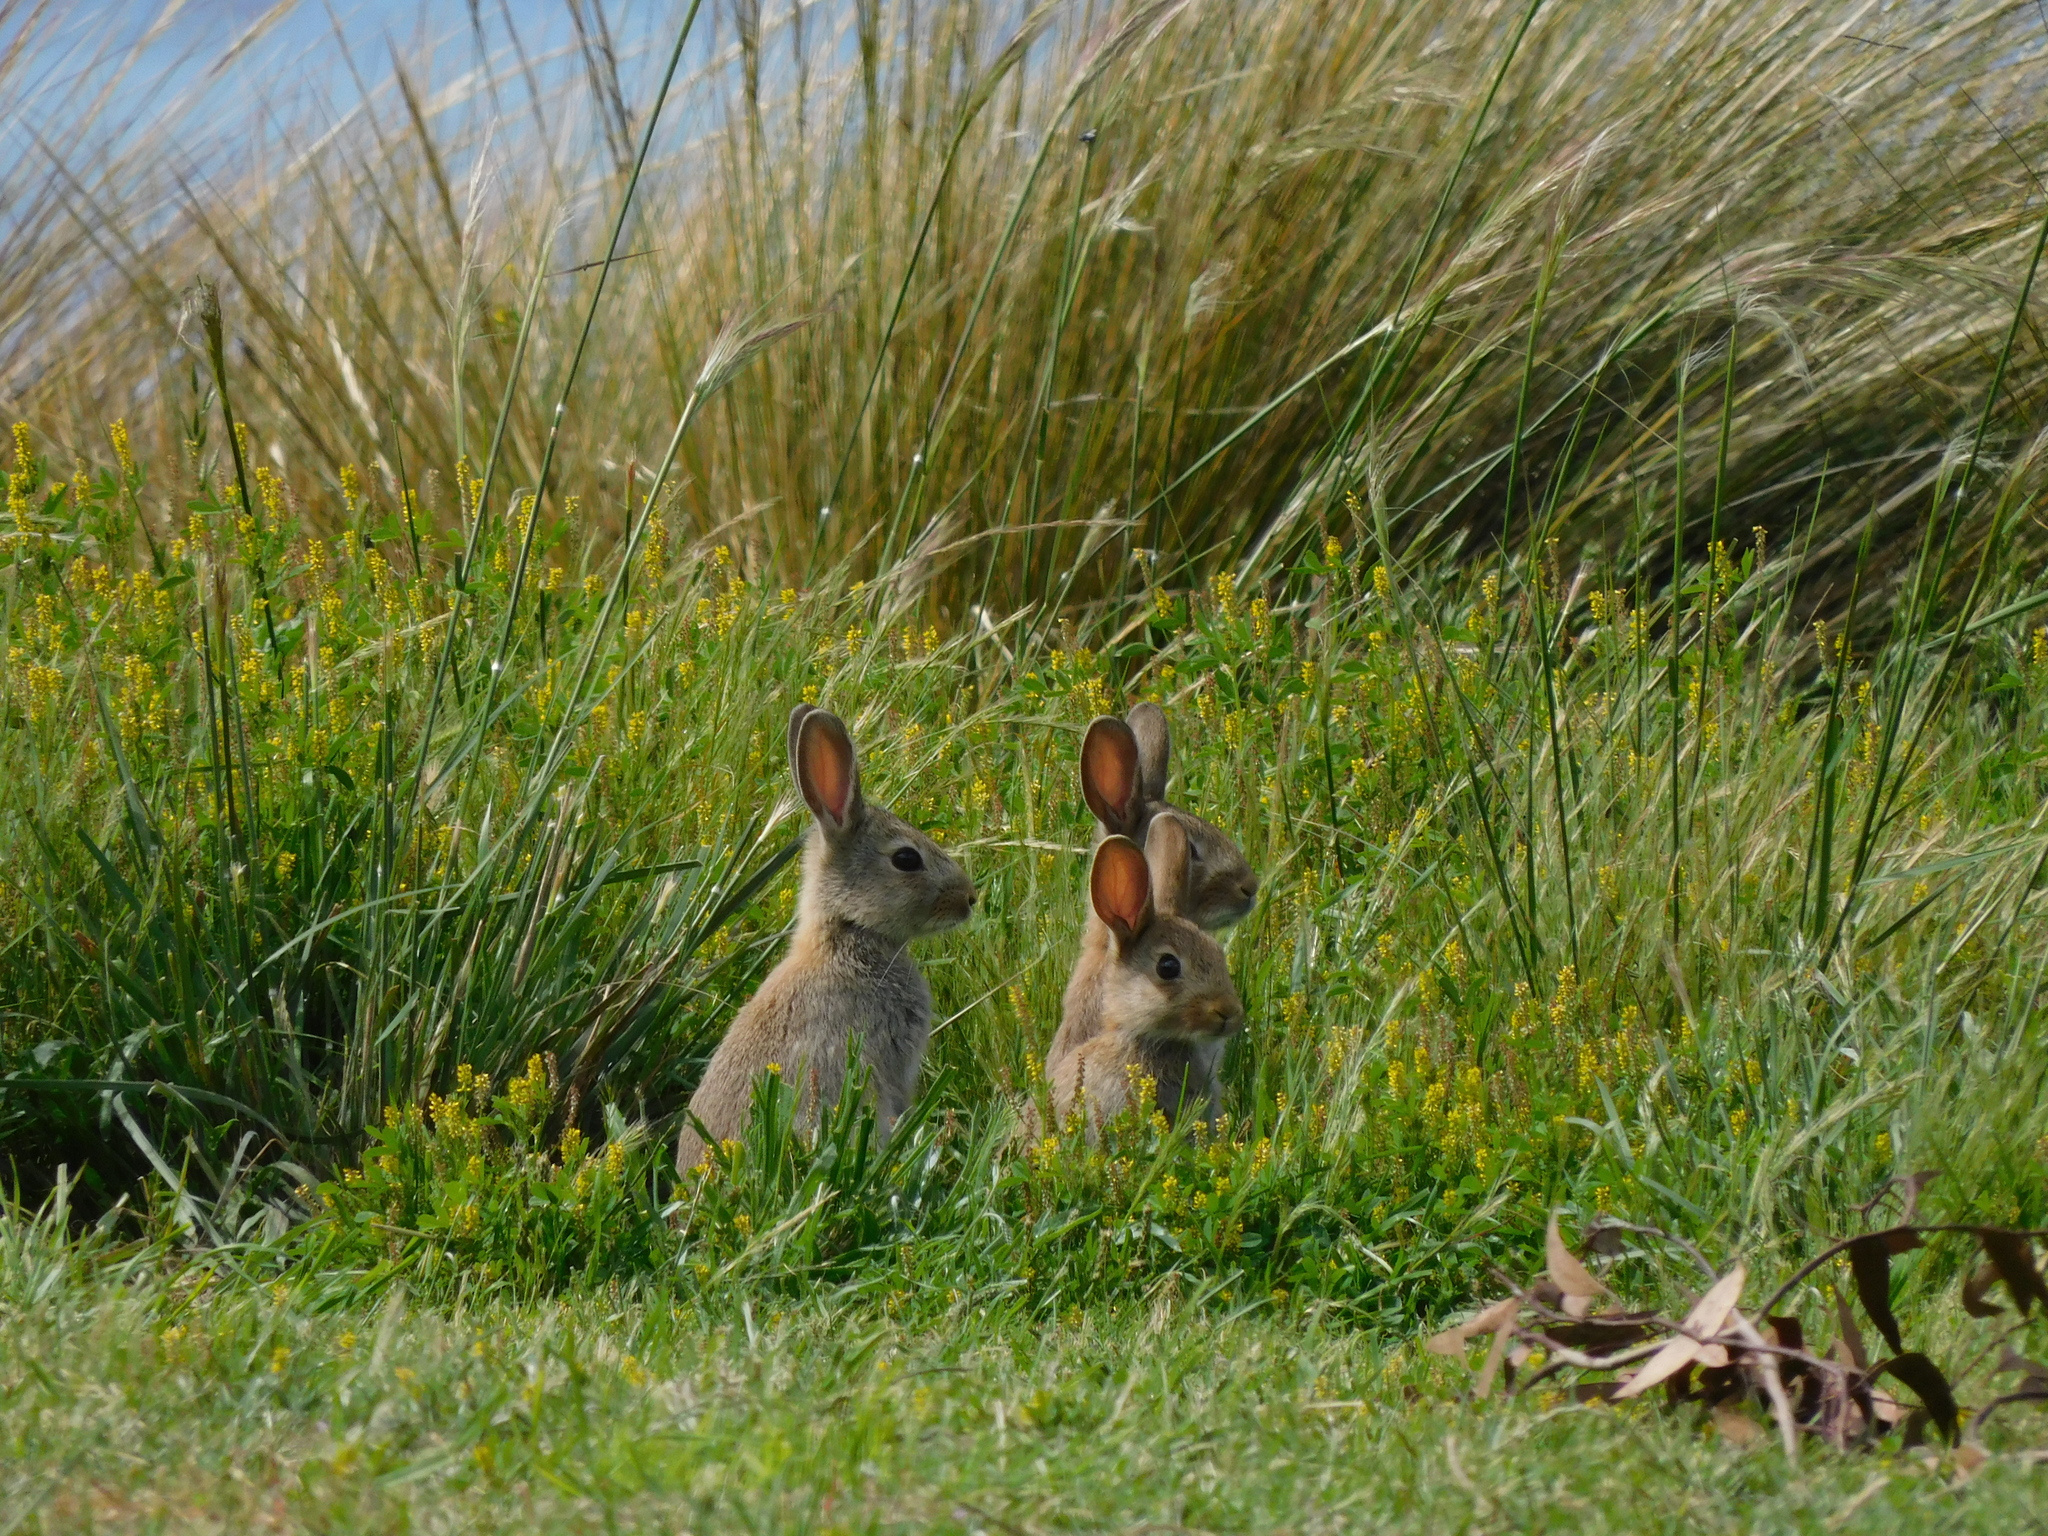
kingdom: Animalia
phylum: Chordata
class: Mammalia
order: Lagomorpha
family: Leporidae
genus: Oryctolagus
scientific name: Oryctolagus cuniculus
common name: European rabbit
